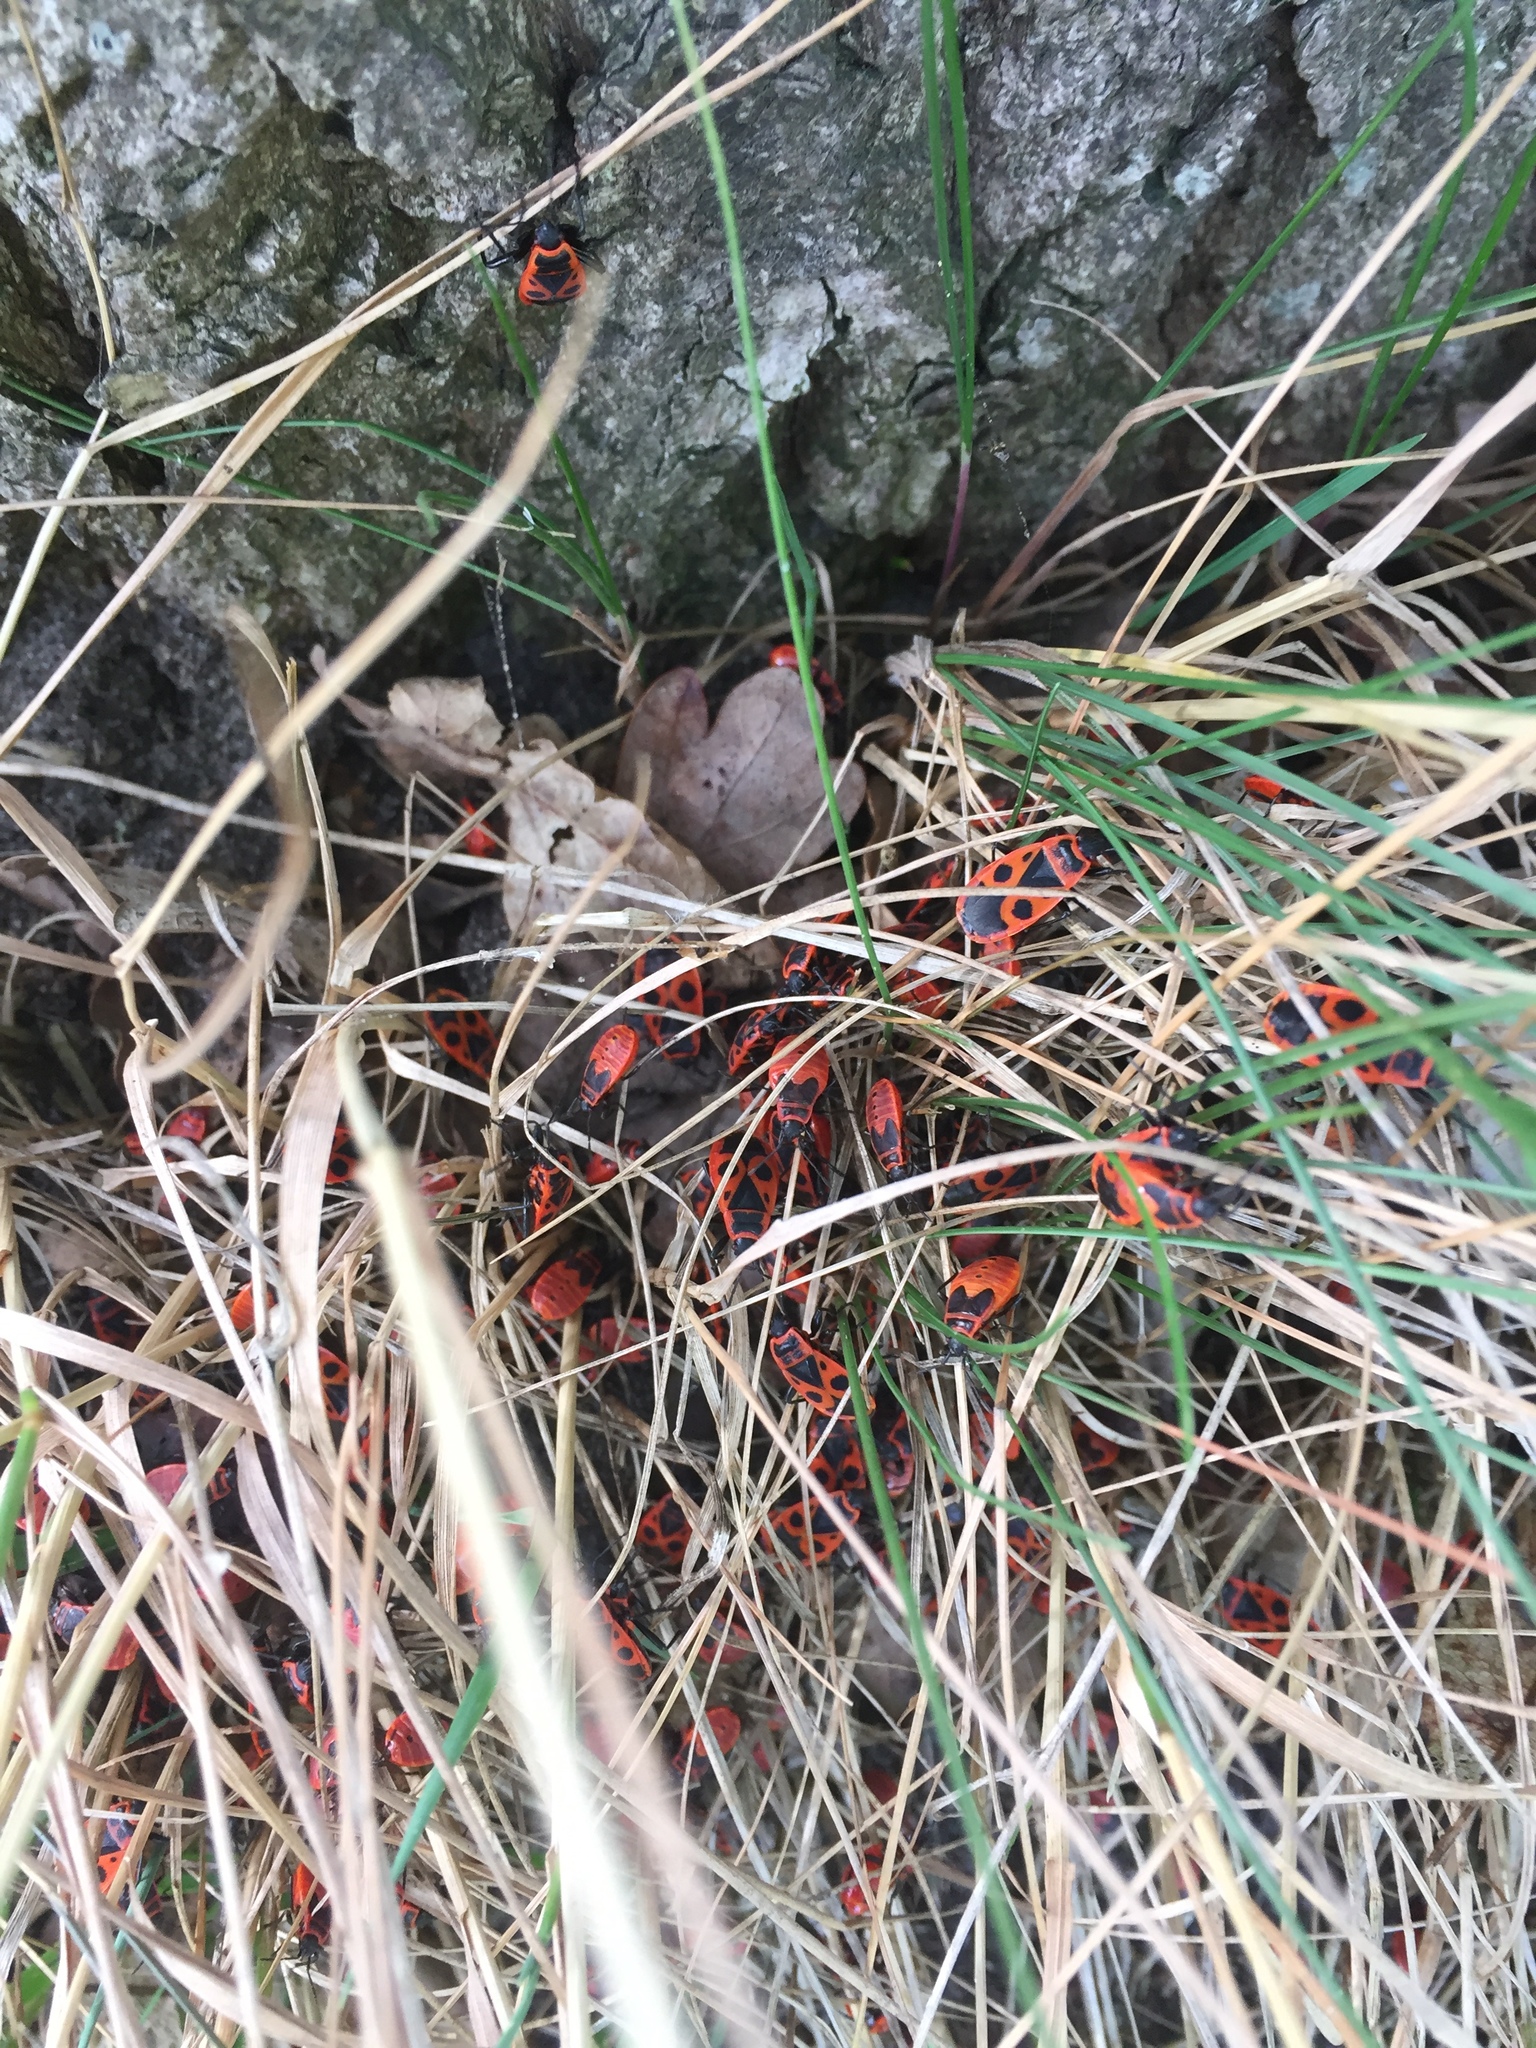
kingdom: Animalia
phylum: Arthropoda
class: Insecta
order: Hemiptera
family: Pyrrhocoridae
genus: Pyrrhocoris
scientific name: Pyrrhocoris apterus
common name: Firebug
